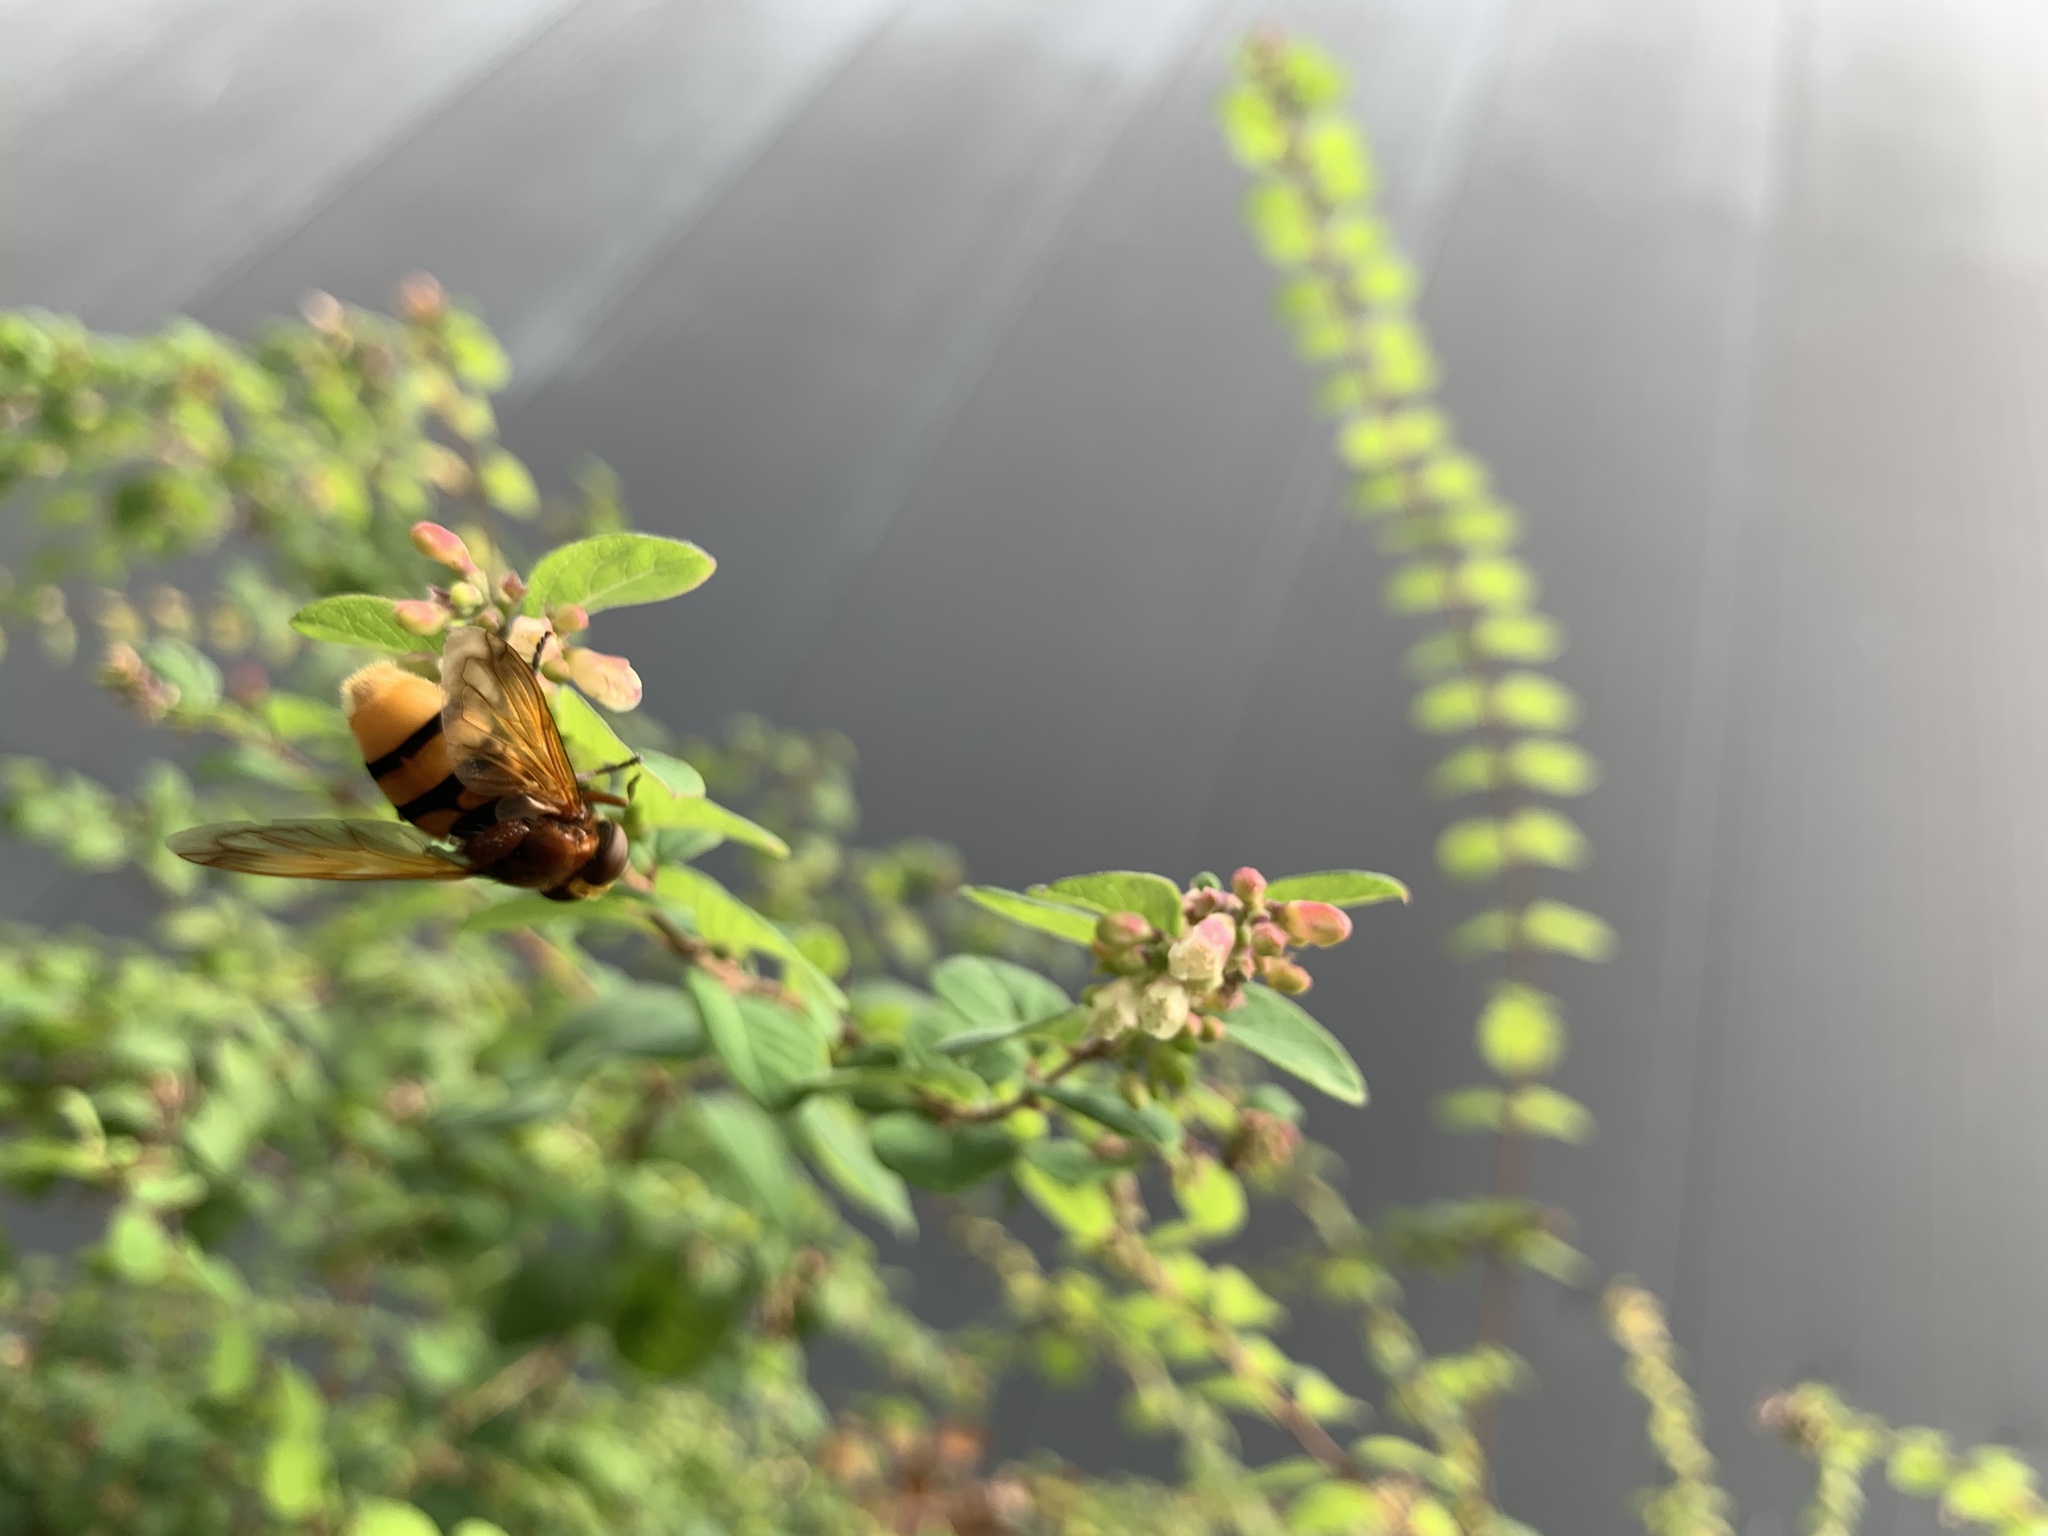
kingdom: Animalia
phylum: Arthropoda
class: Insecta
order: Diptera
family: Syrphidae
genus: Volucella
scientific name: Volucella zonaria
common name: Hornet hoverfly
